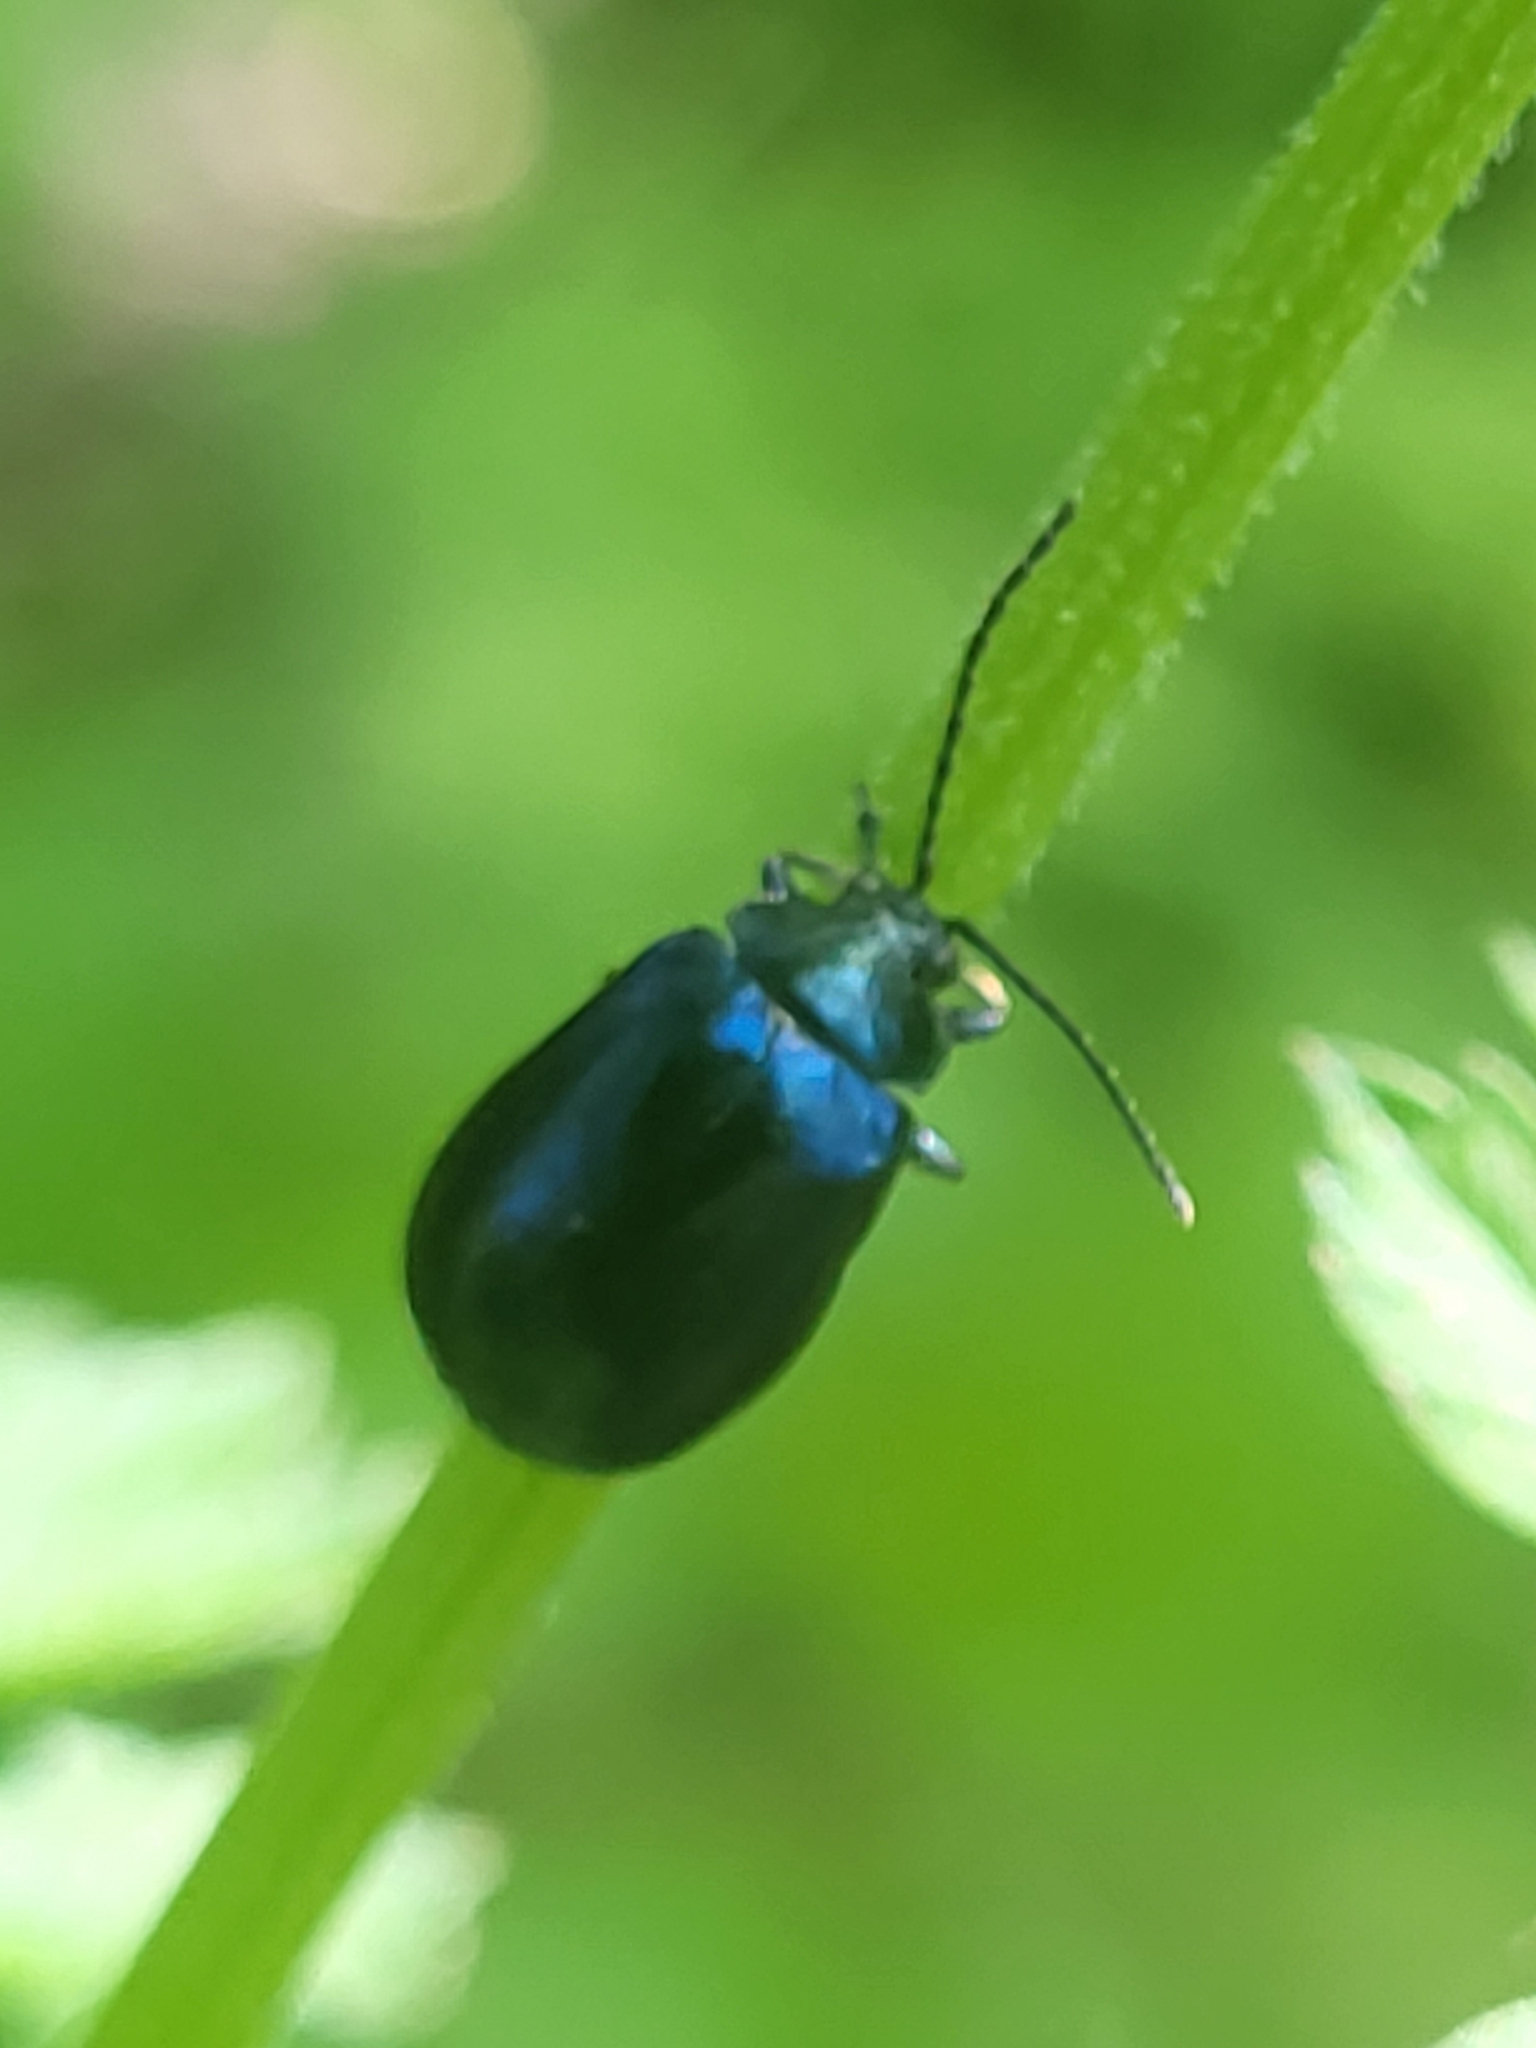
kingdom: Animalia
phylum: Arthropoda
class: Insecta
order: Coleoptera
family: Chrysomelidae
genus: Agelastica
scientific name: Agelastica alni
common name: Alder leaf beetle
